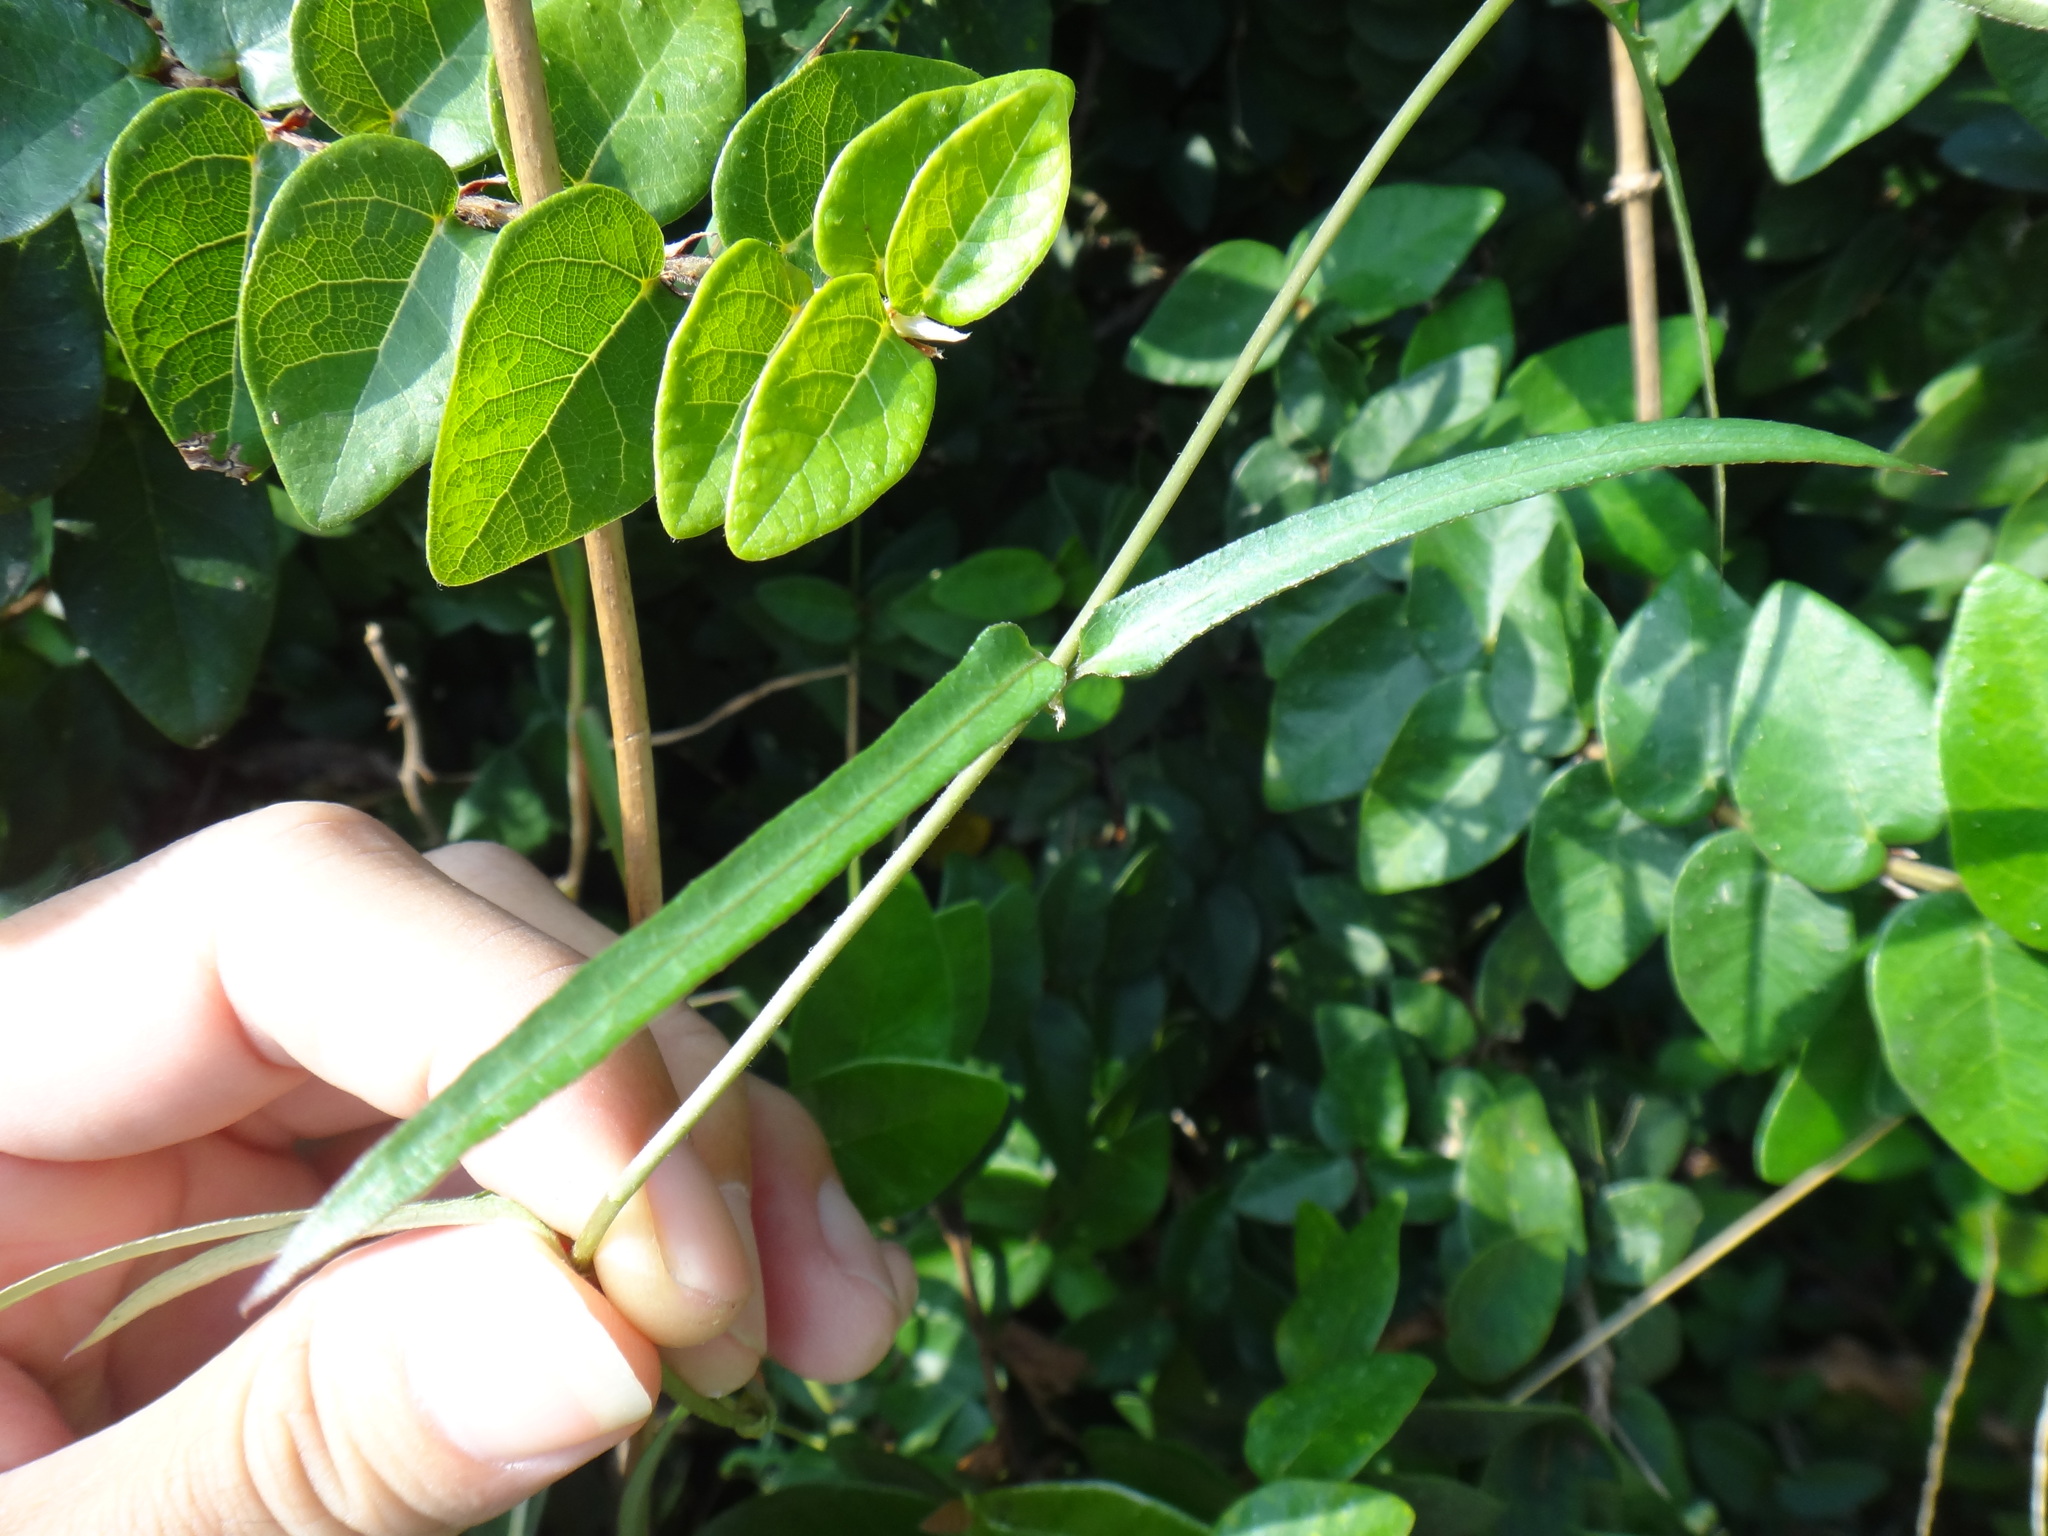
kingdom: Plantae
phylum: Tracheophyta
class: Magnoliopsida
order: Gentianales
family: Rubiaceae
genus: Paederia
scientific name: Paederia foetida
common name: Stinkvine
